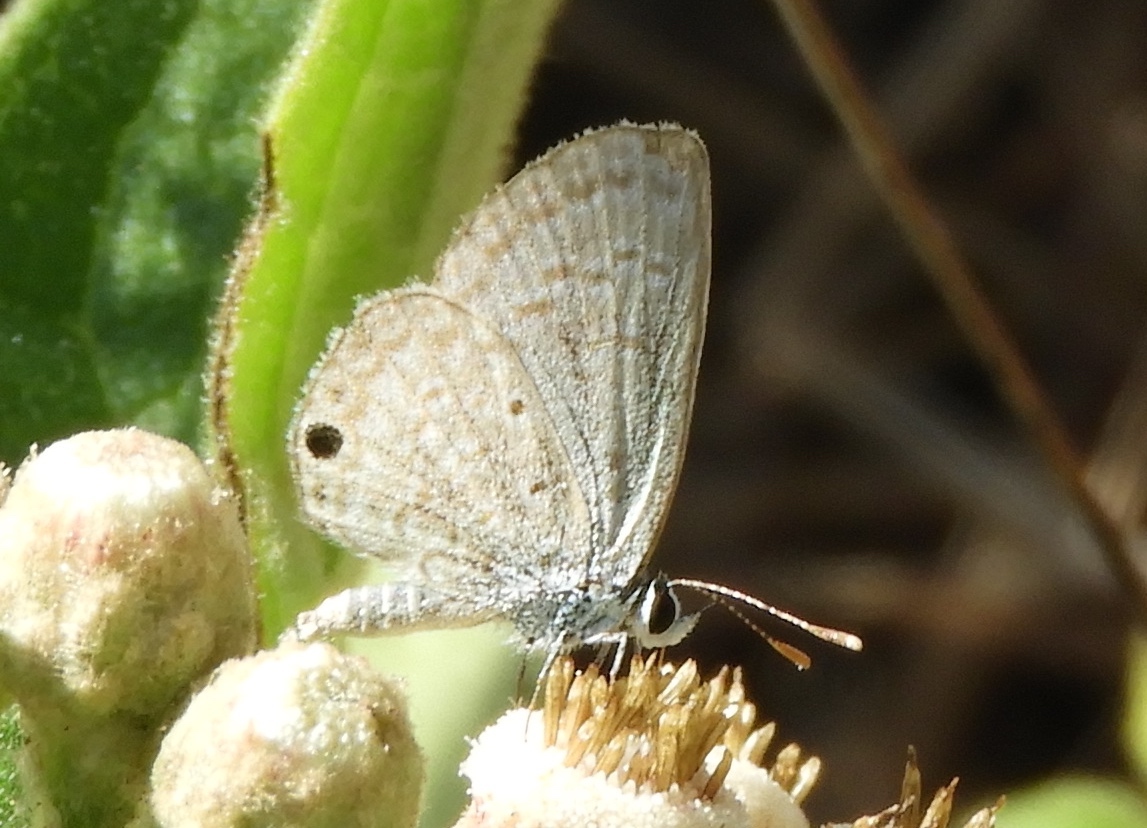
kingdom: Animalia
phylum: Arthropoda
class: Insecta
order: Lepidoptera
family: Lycaenidae
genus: Echinargus
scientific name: Echinargus isola
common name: Reakirt's blue
